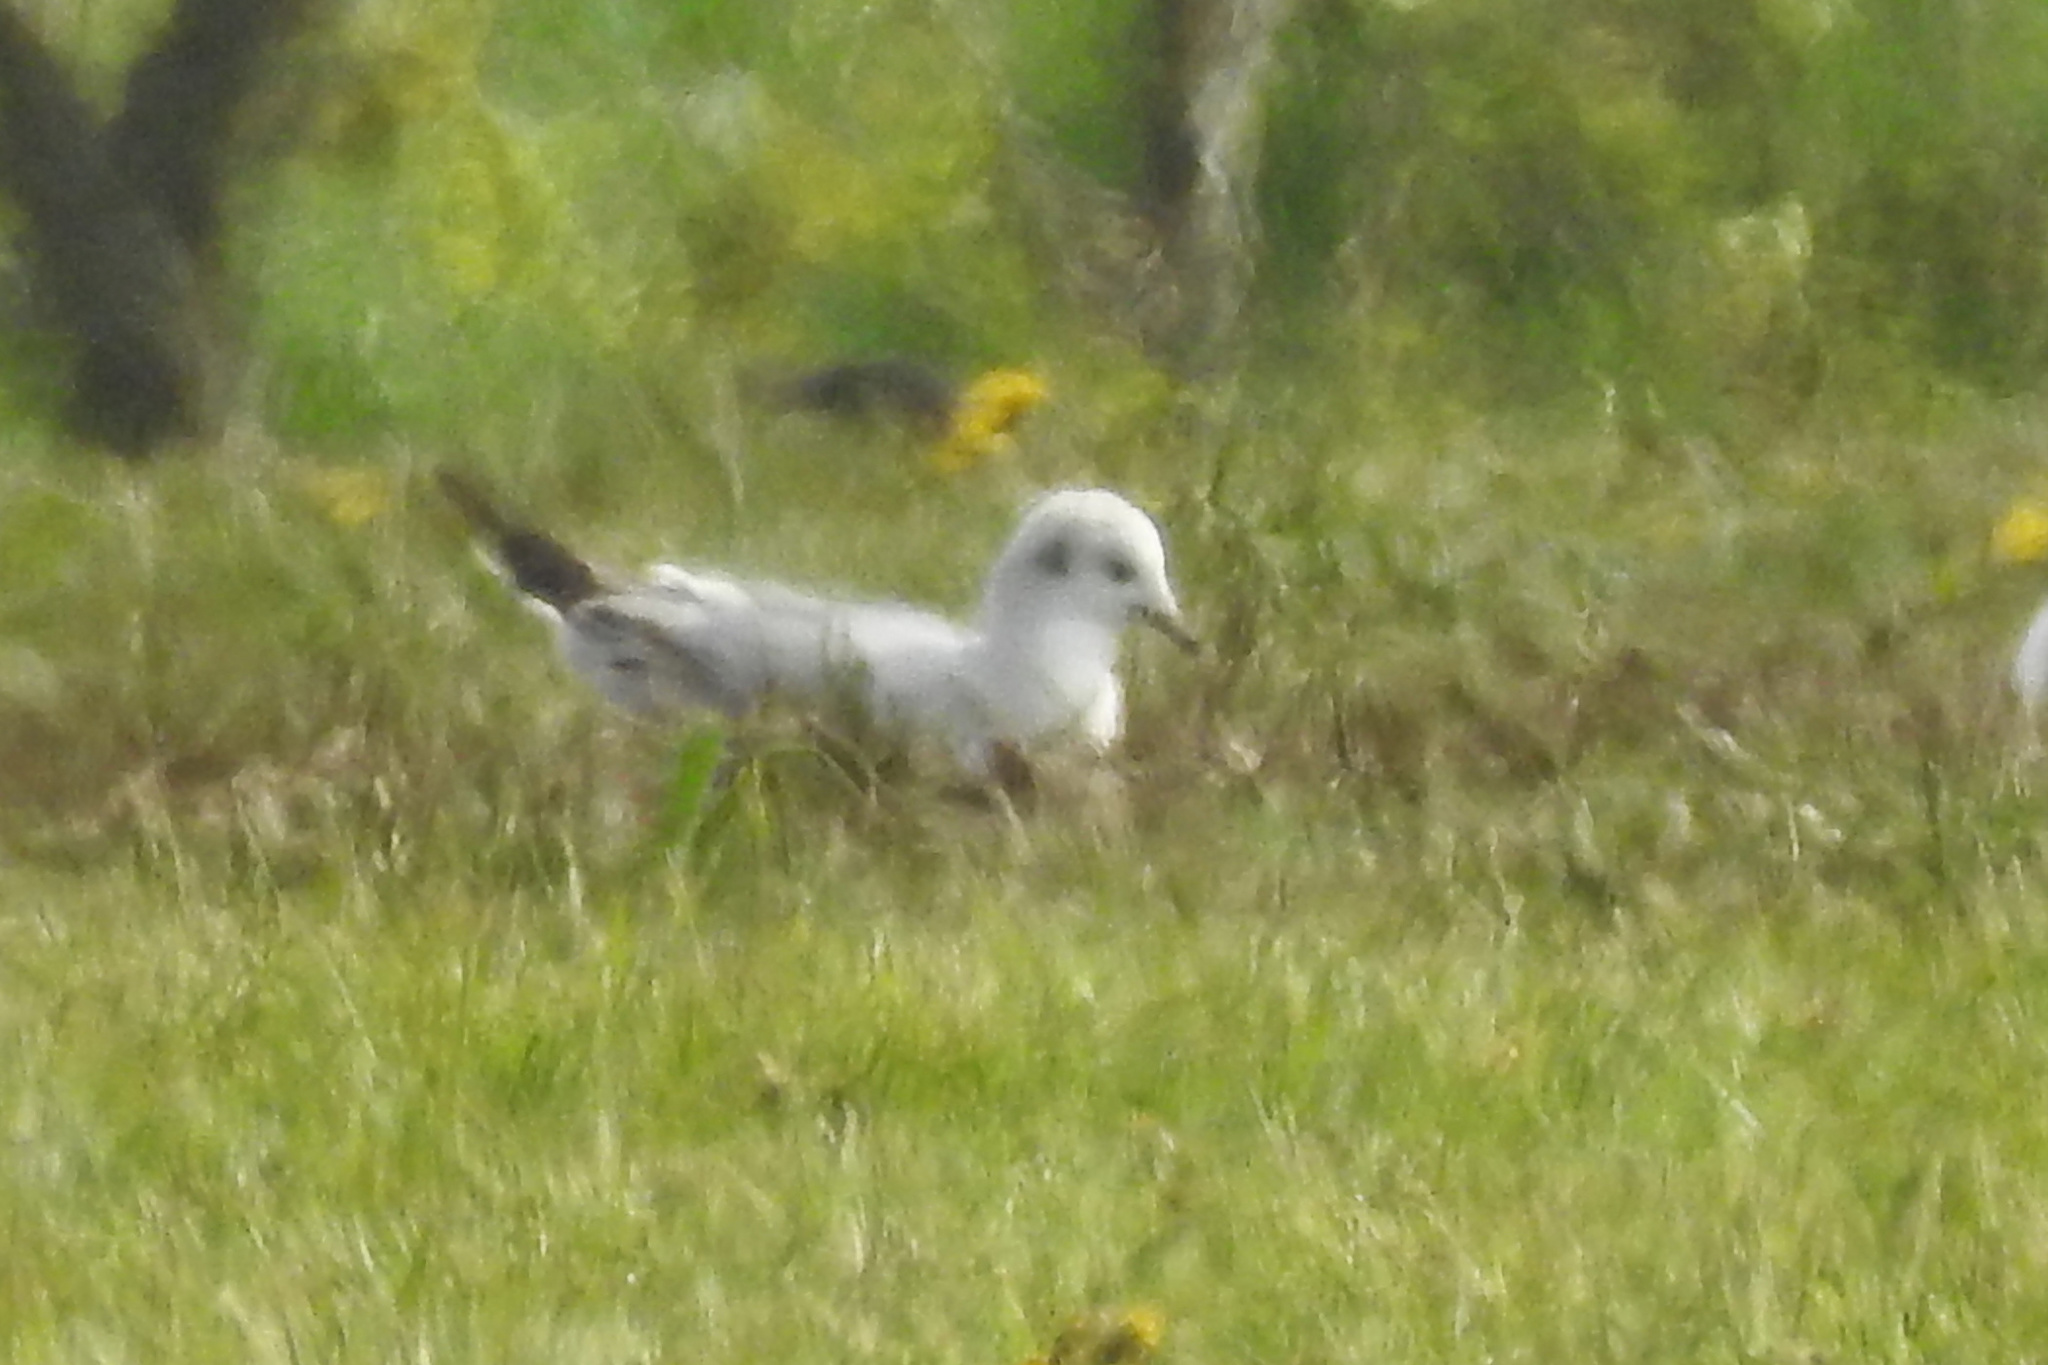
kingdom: Animalia
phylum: Chordata
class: Aves
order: Charadriiformes
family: Laridae
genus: Chroicocephalus
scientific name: Chroicocephalus philadelphia
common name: Bonaparte's gull
